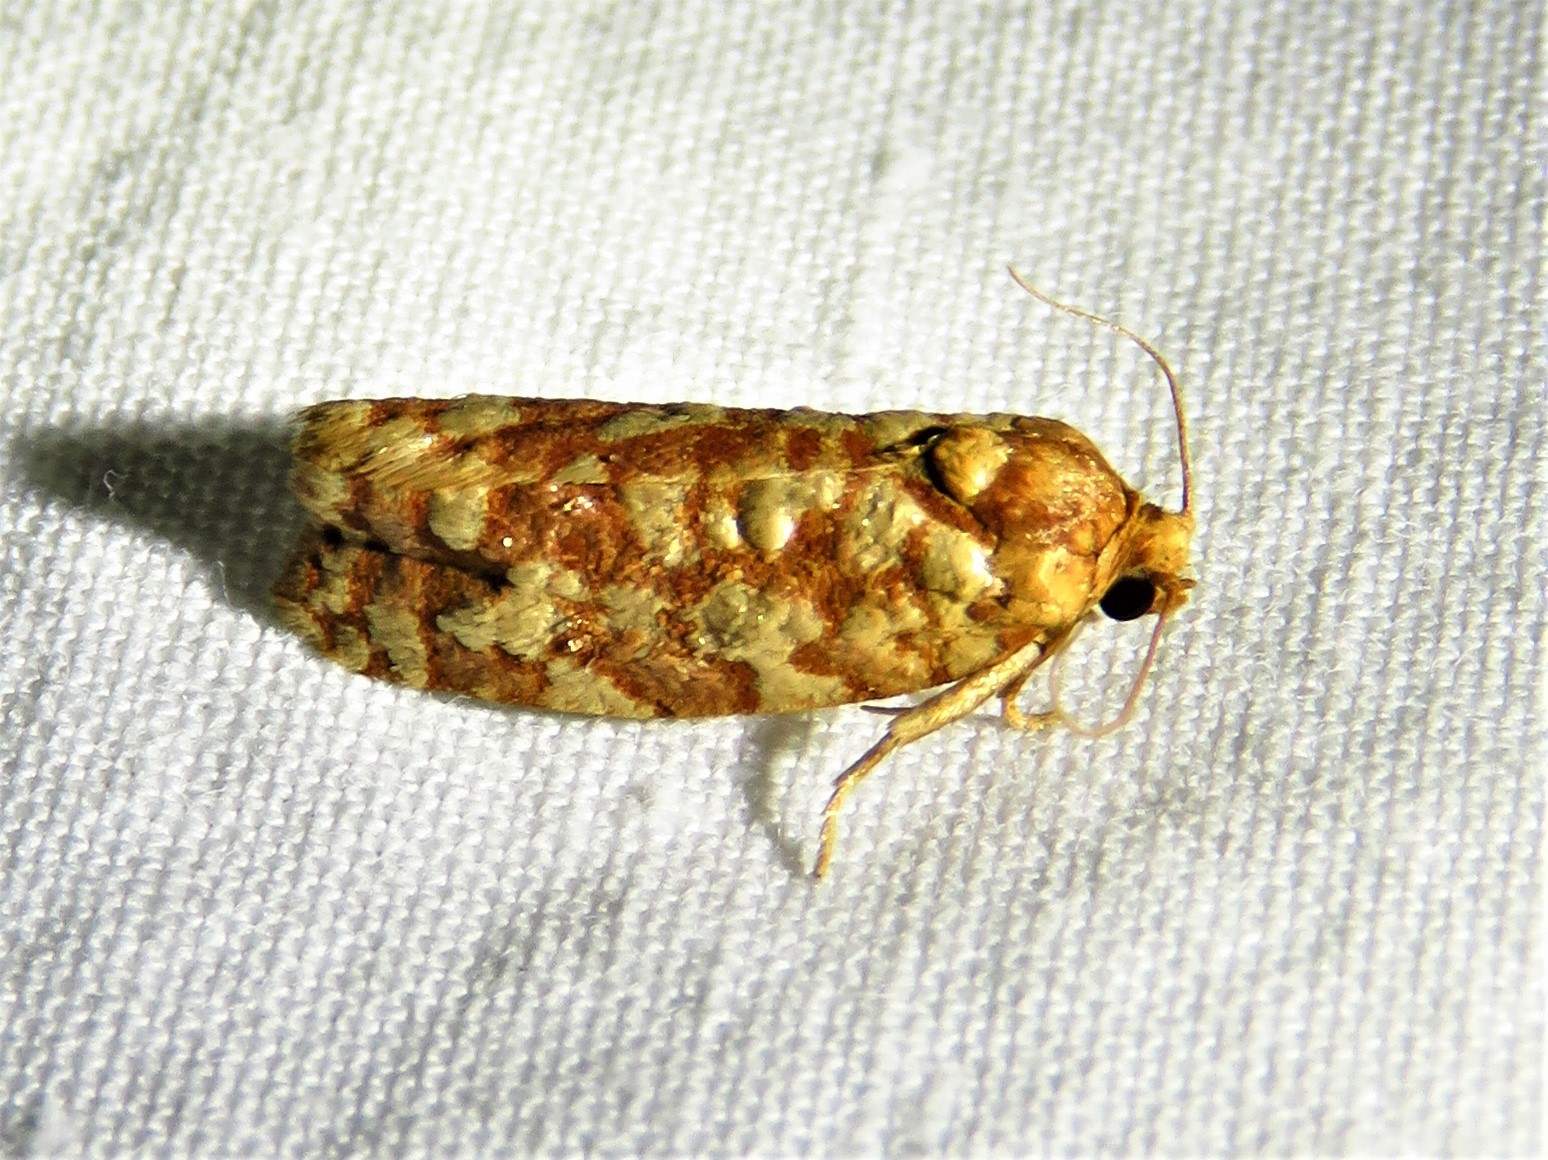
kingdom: Animalia
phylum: Arthropoda
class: Insecta
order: Lepidoptera
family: Tortricidae
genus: Choristoneura
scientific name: Choristoneura houstonana
